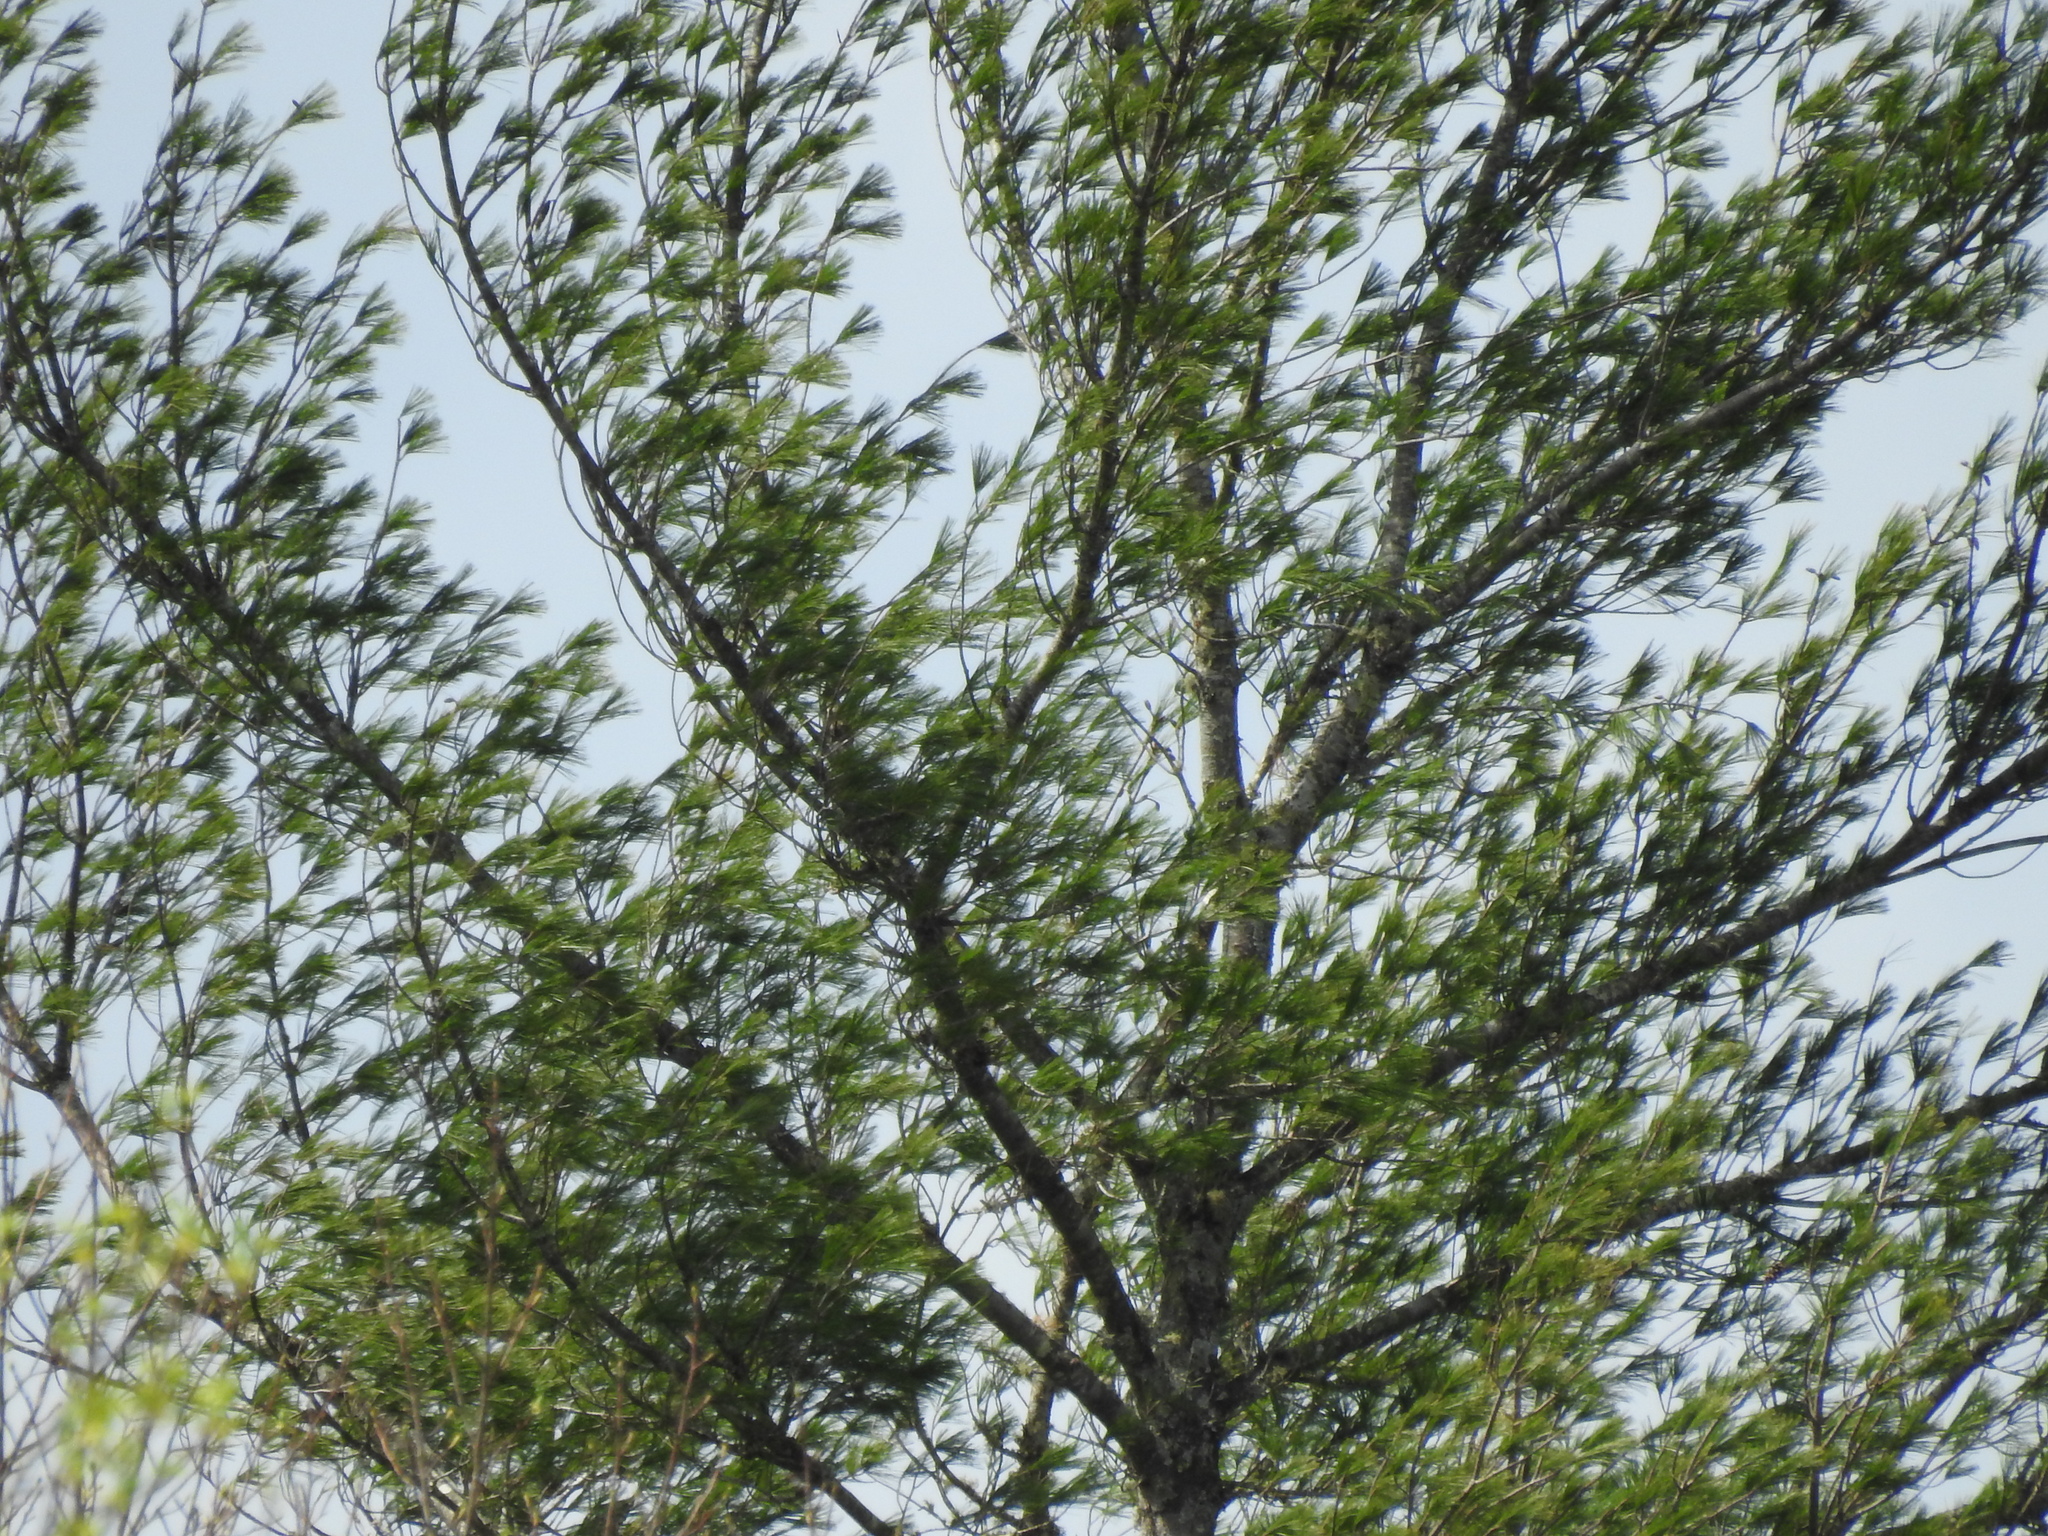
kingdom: Plantae
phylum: Tracheophyta
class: Pinopsida
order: Pinales
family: Pinaceae
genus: Pinus
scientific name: Pinus strobus
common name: Weymouth pine
